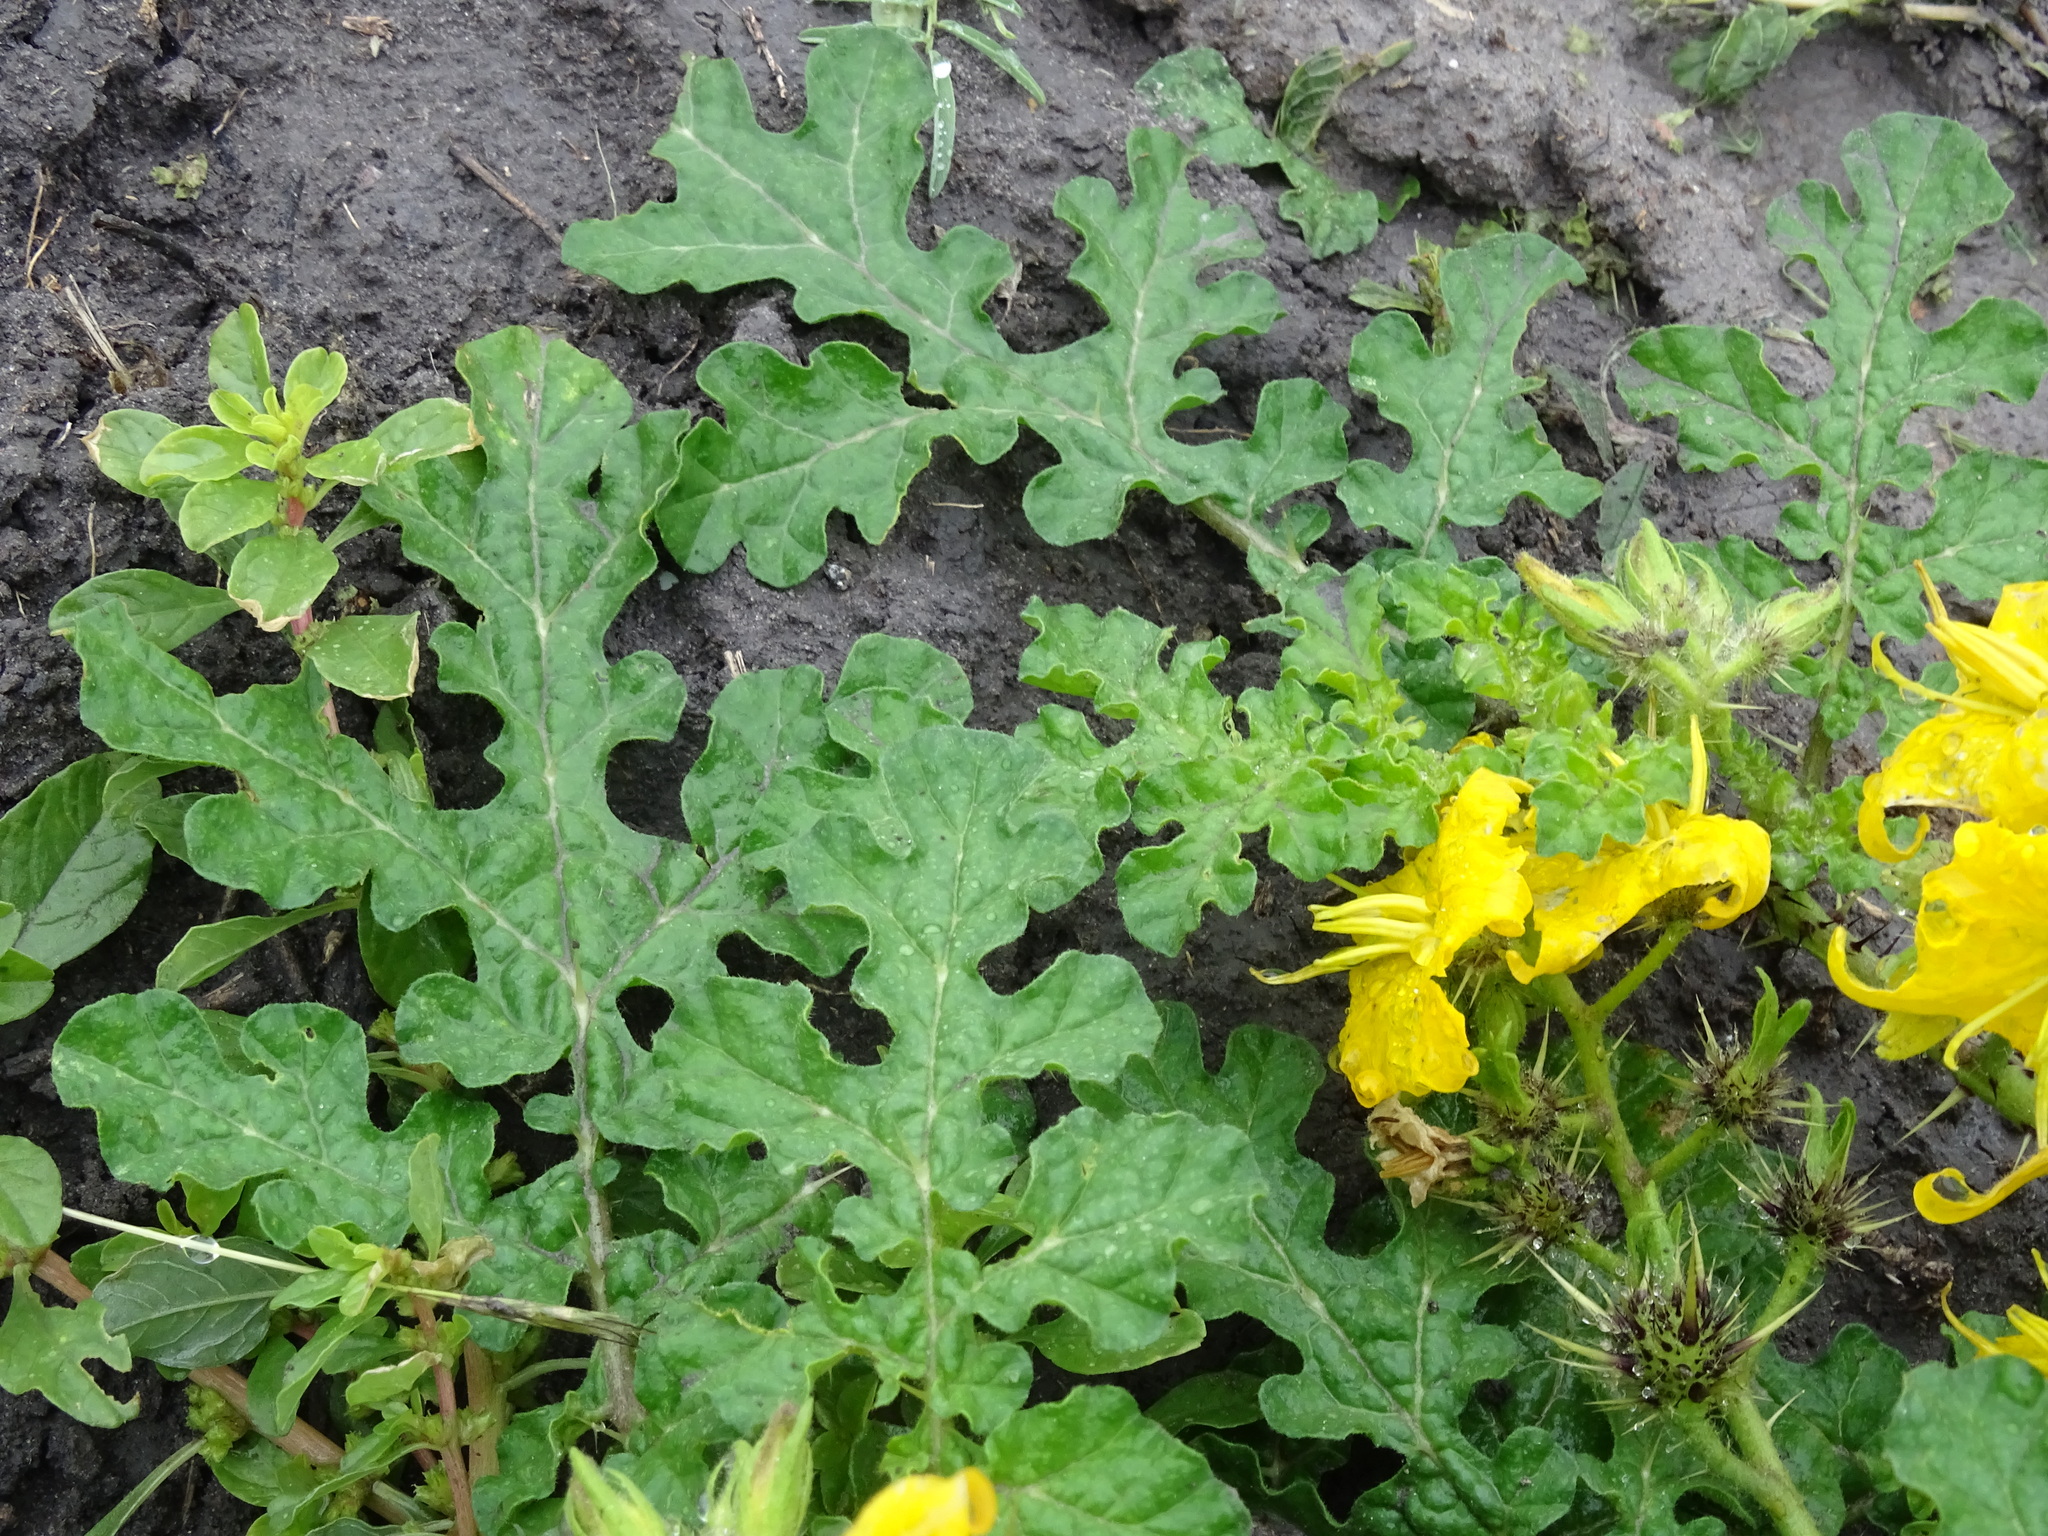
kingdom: Plantae
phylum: Tracheophyta
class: Magnoliopsida
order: Solanales
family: Solanaceae
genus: Solanum
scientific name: Solanum angustifolium
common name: Buffalobur nightshade
